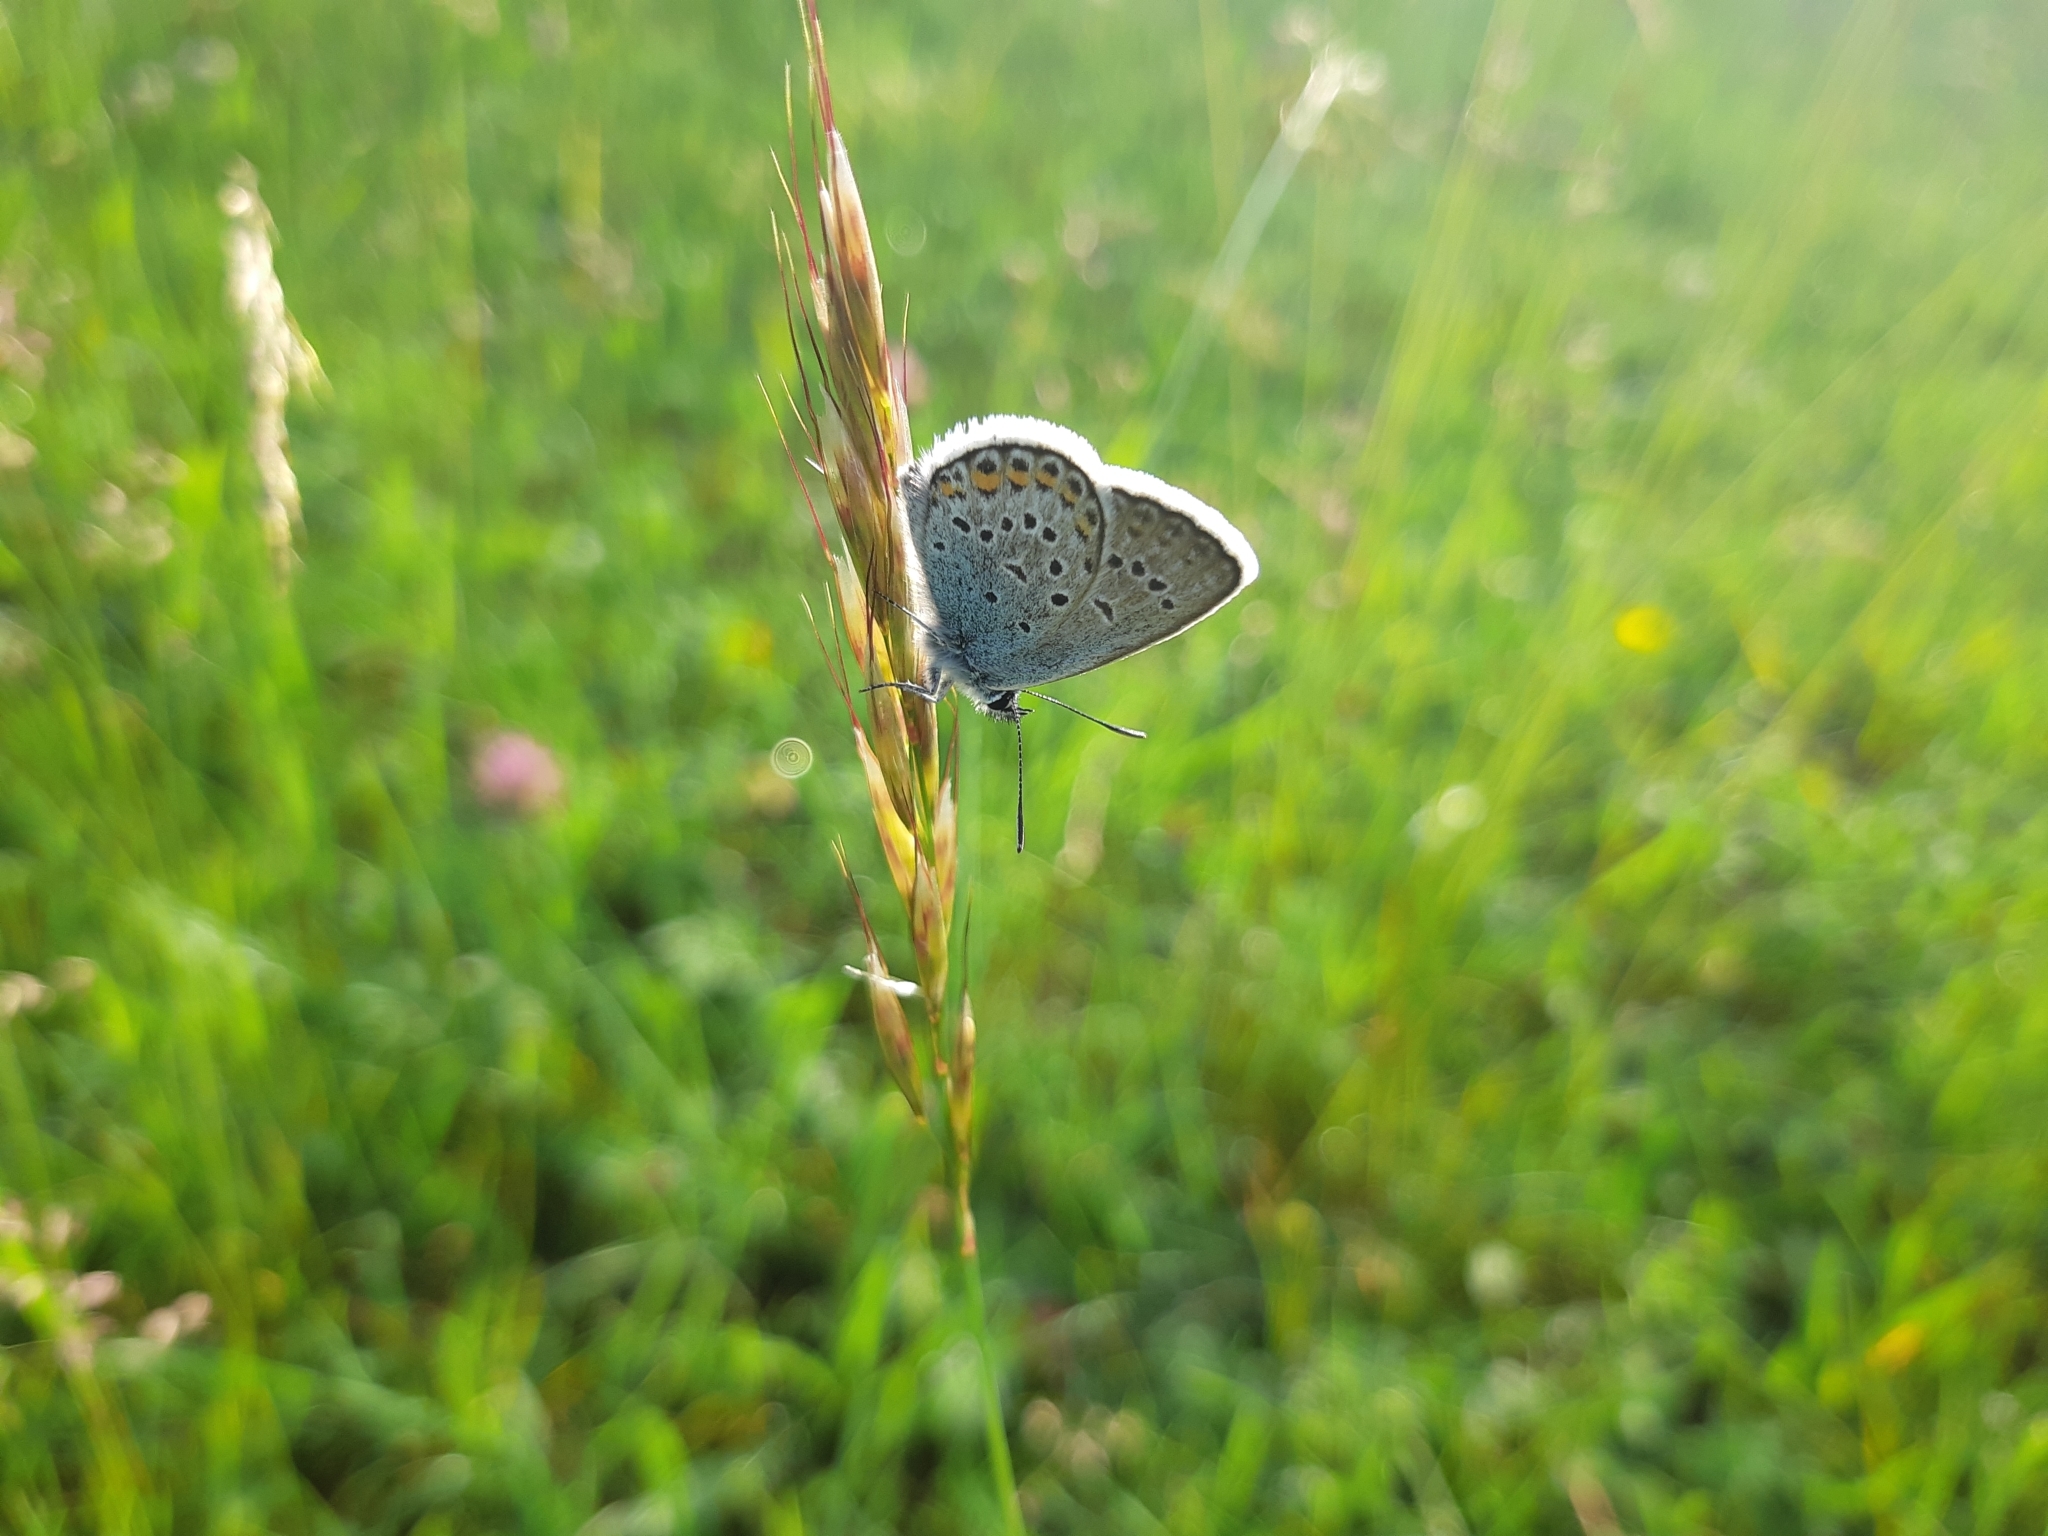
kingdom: Animalia
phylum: Arthropoda
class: Insecta
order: Lepidoptera
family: Lycaenidae
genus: Plebejus
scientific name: Plebejus argus
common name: Silver-studded blue
